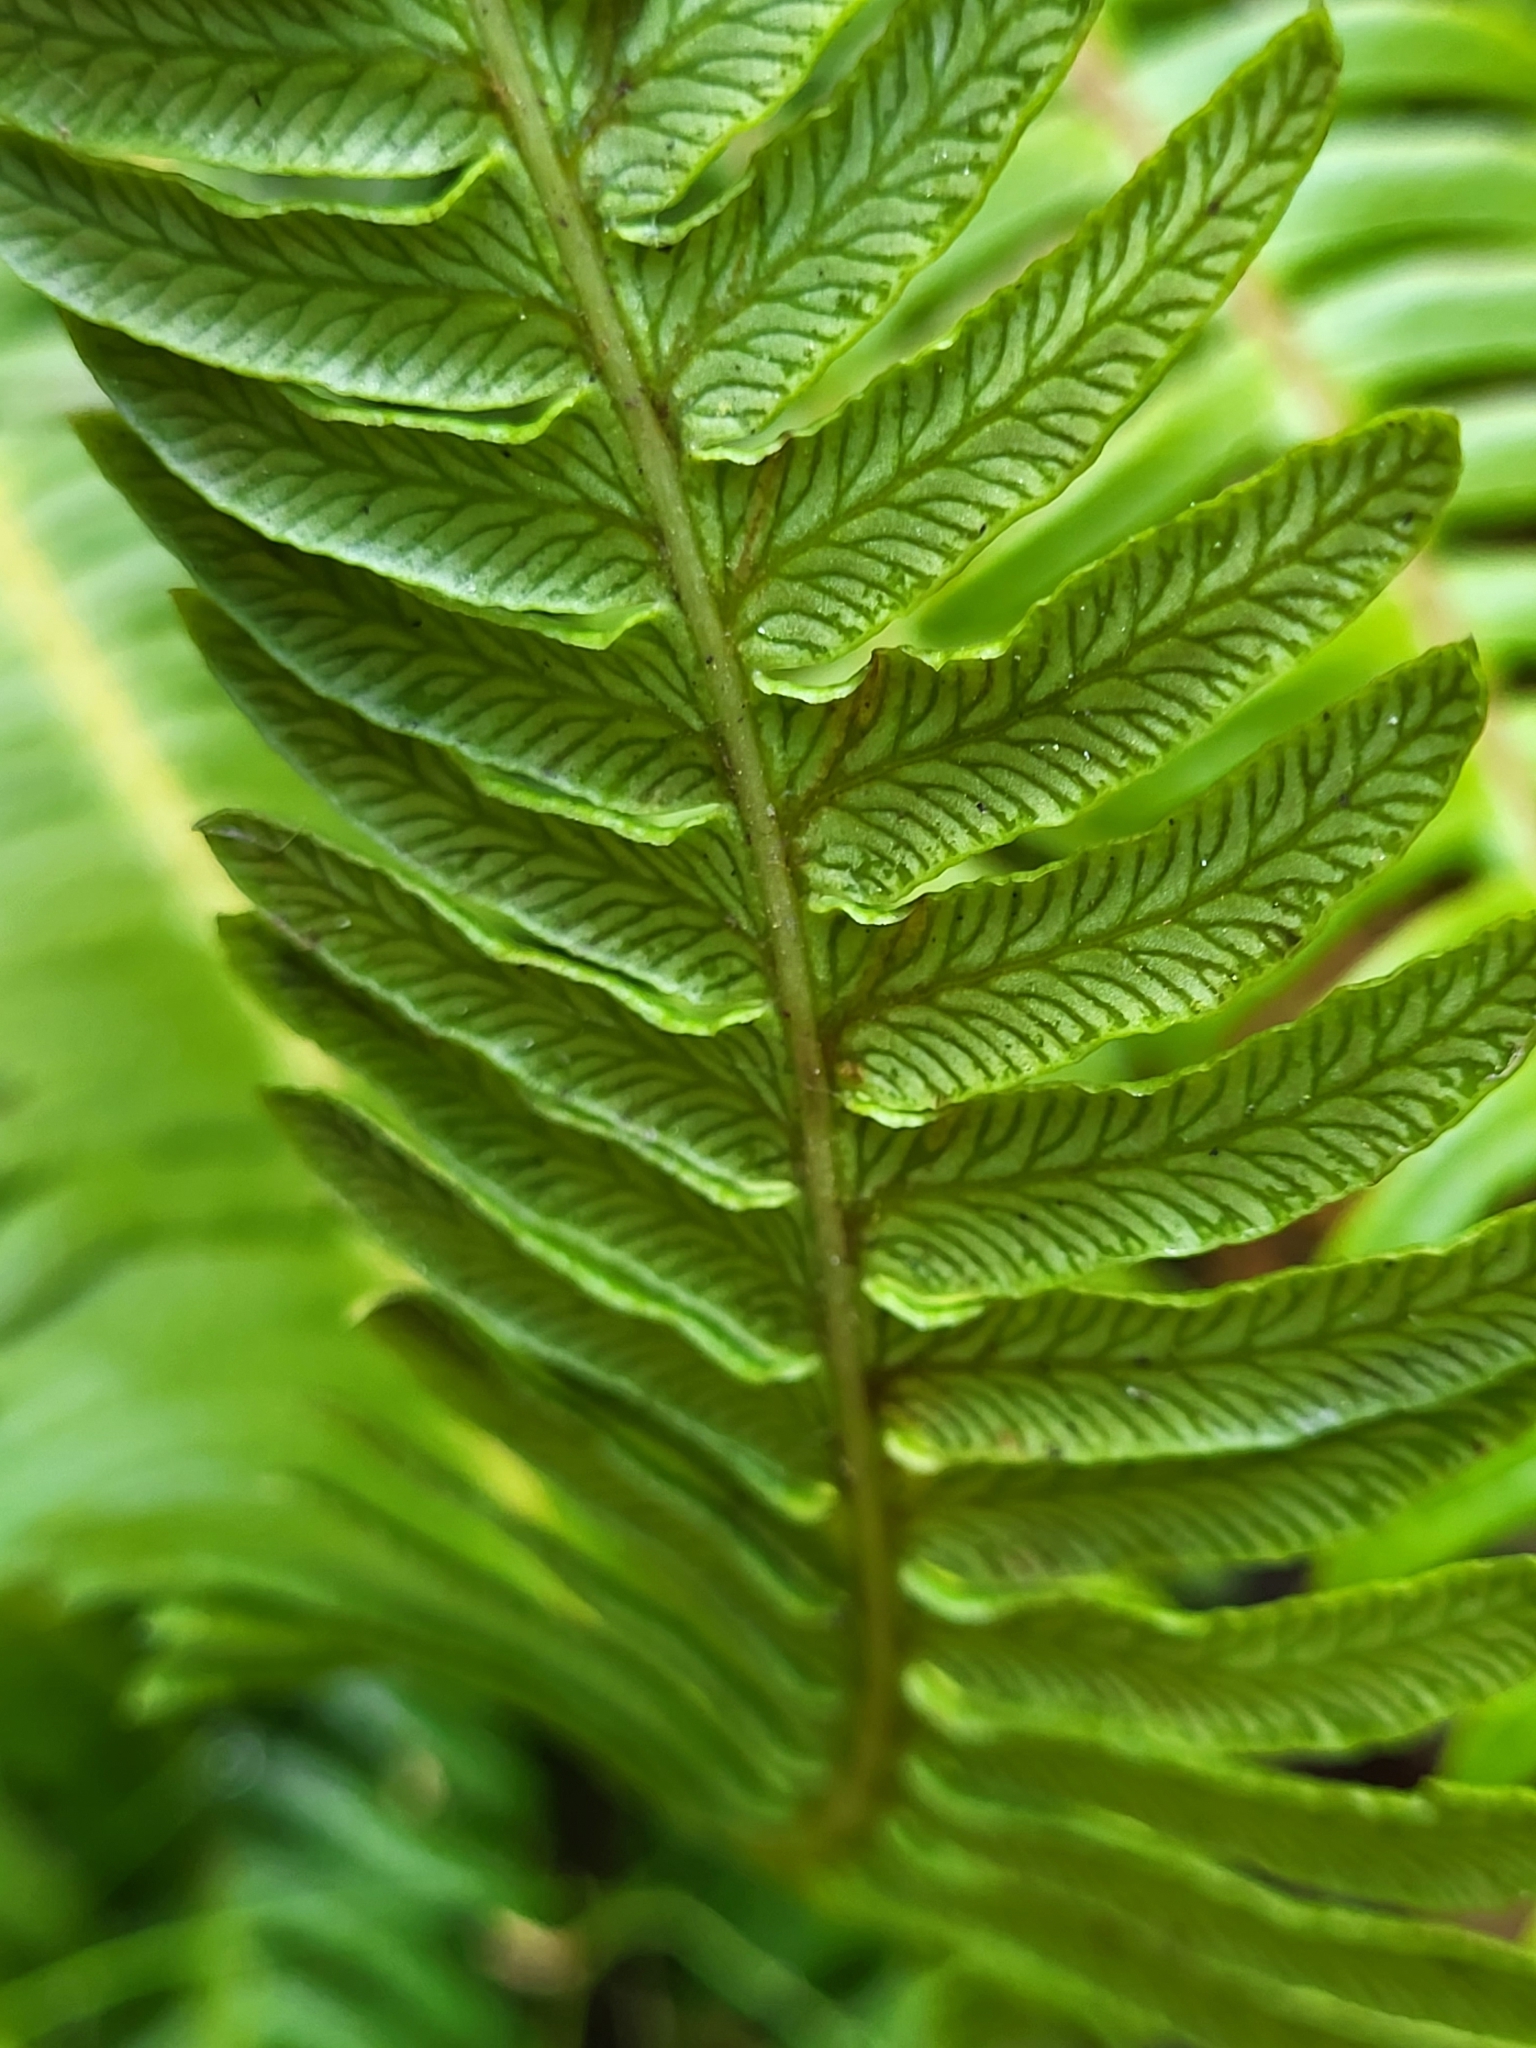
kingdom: Plantae
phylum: Tracheophyta
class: Polypodiopsida
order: Polypodiales
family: Blechnaceae
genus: Struthiopteris
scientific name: Struthiopteris spicant
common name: Deer fern
